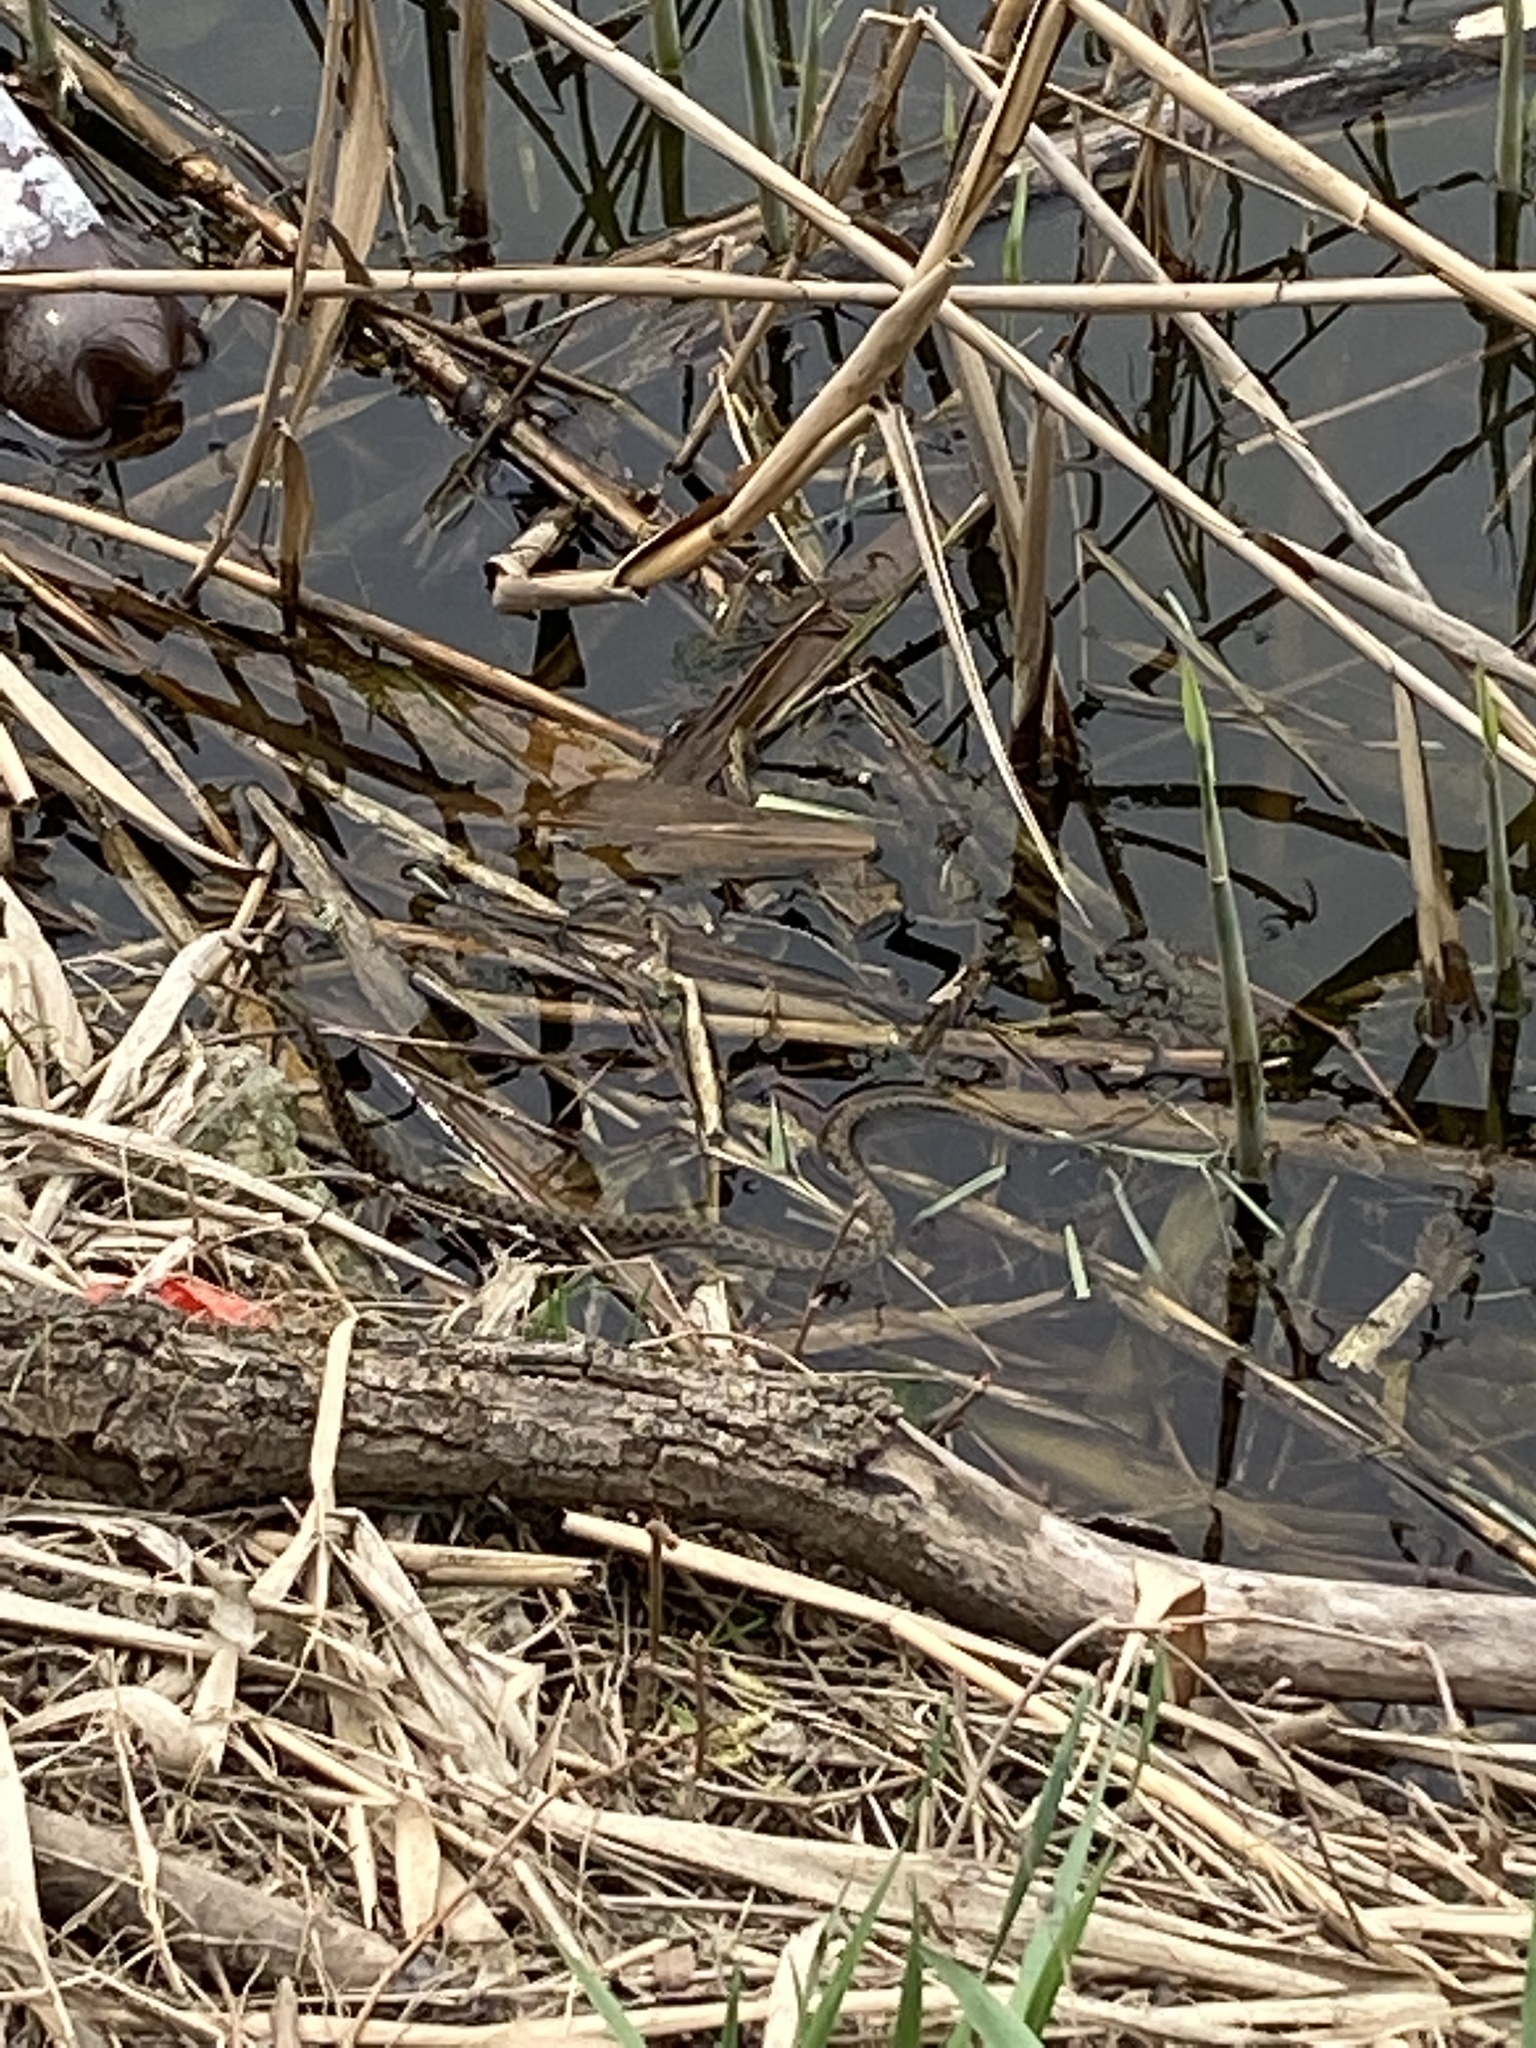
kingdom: Animalia
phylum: Chordata
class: Squamata
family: Colubridae
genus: Natrix
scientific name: Natrix tessellata
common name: Dice snake
